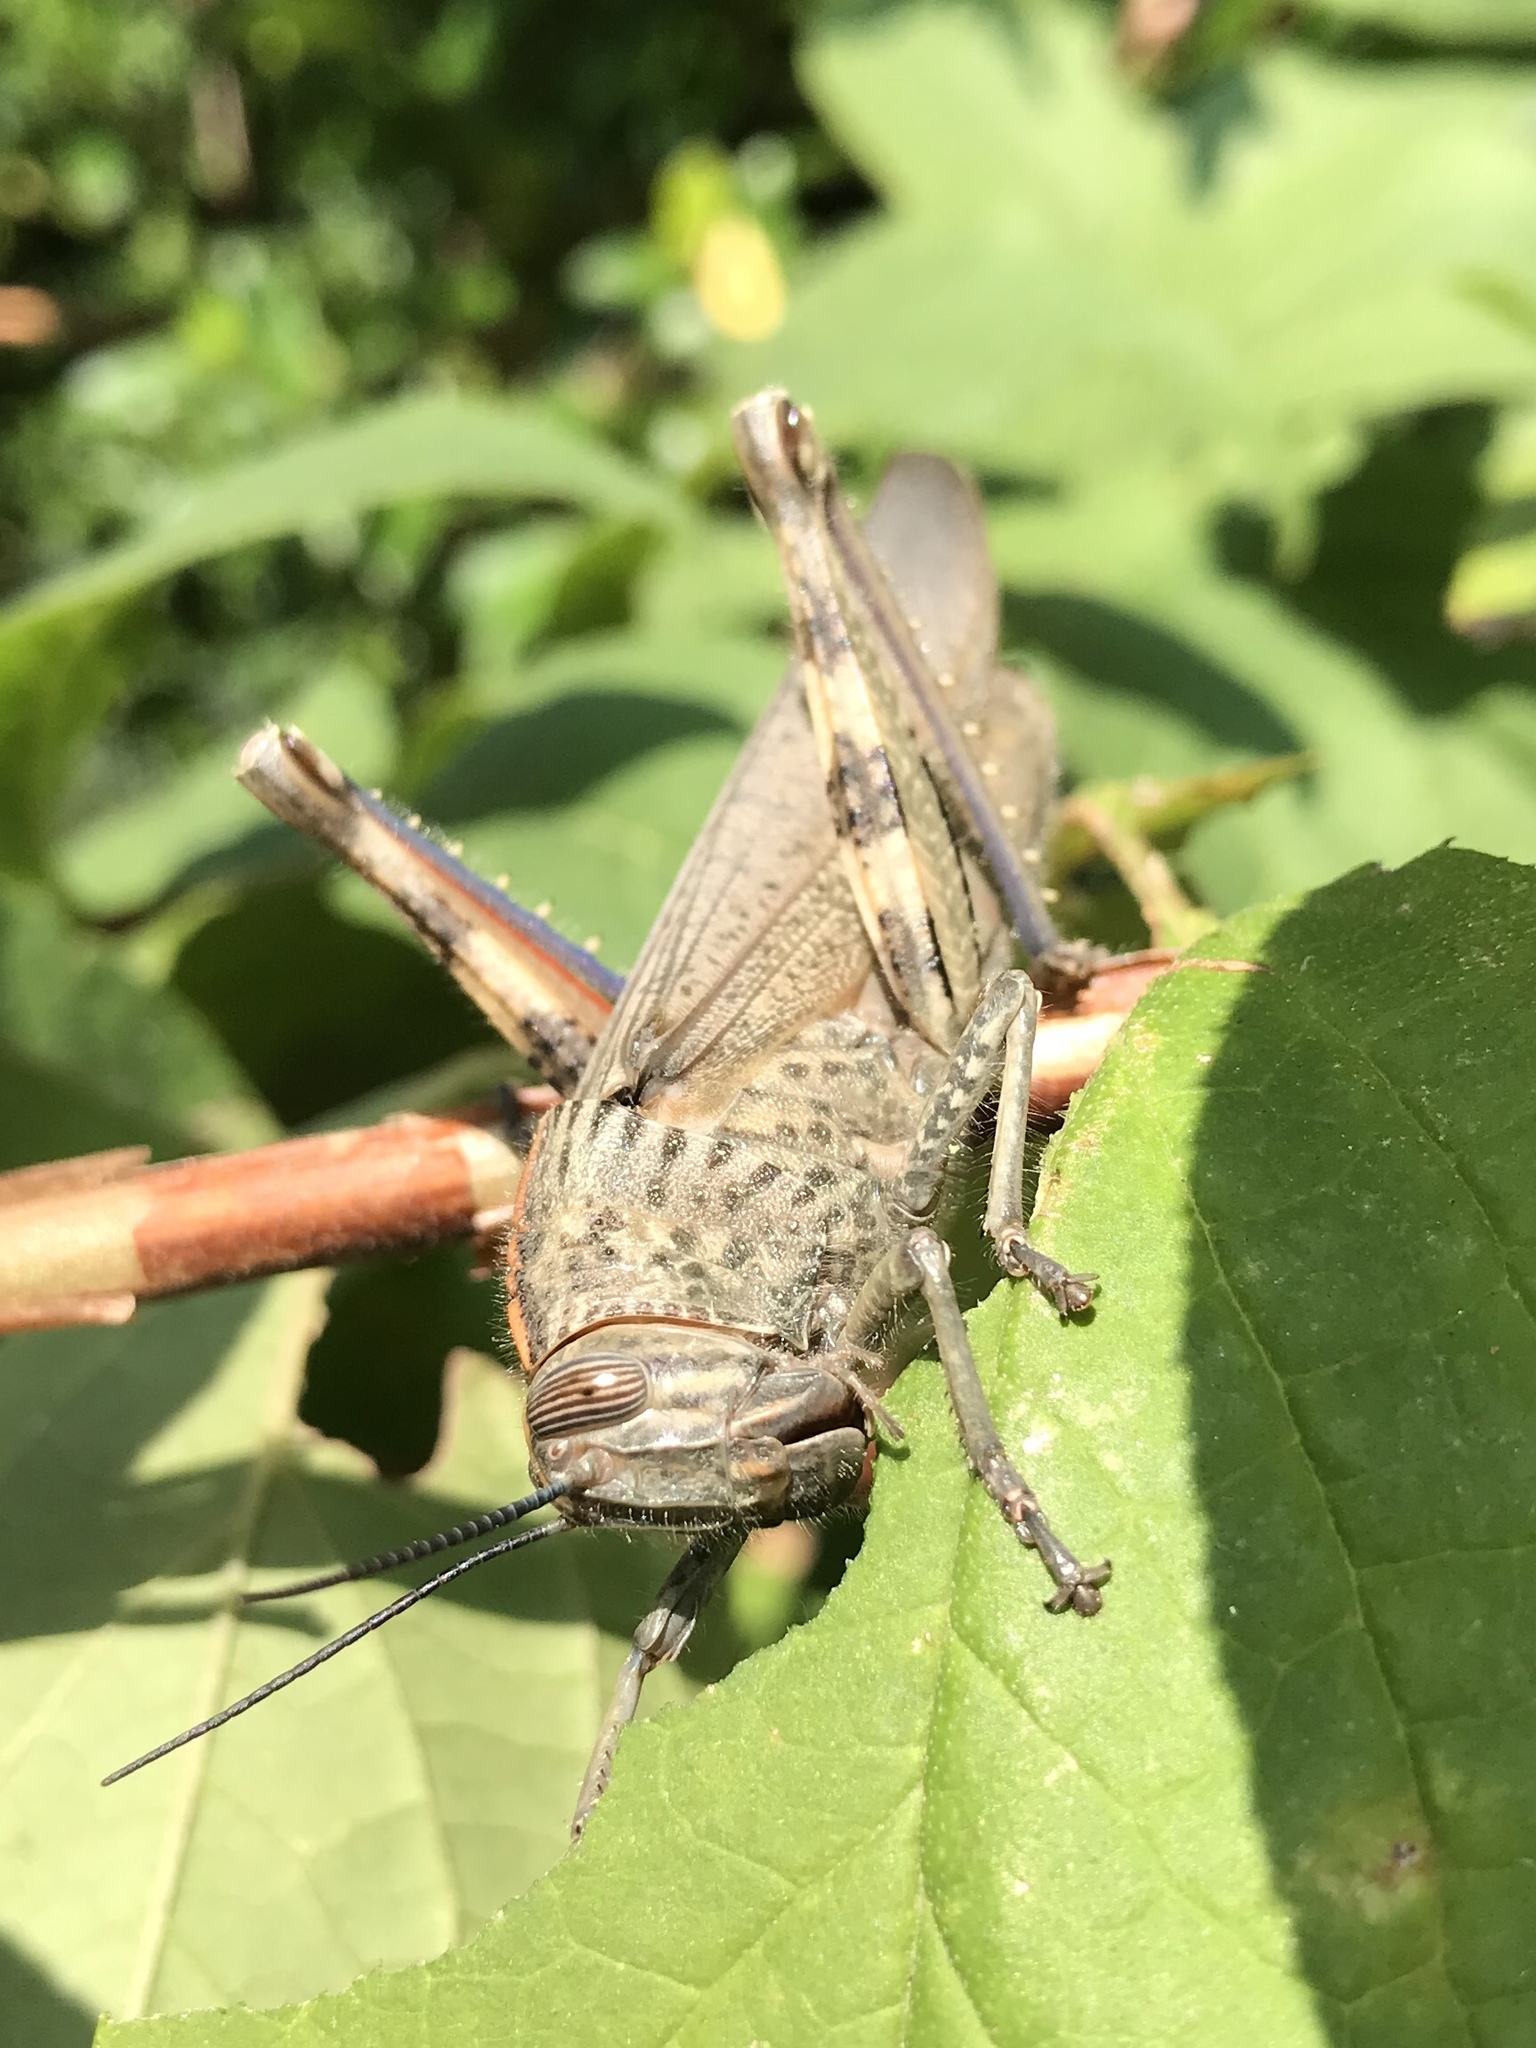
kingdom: Animalia
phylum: Arthropoda
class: Insecta
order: Orthoptera
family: Acrididae
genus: Anacridium
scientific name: Anacridium aegyptium
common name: Egyptian grasshopper
